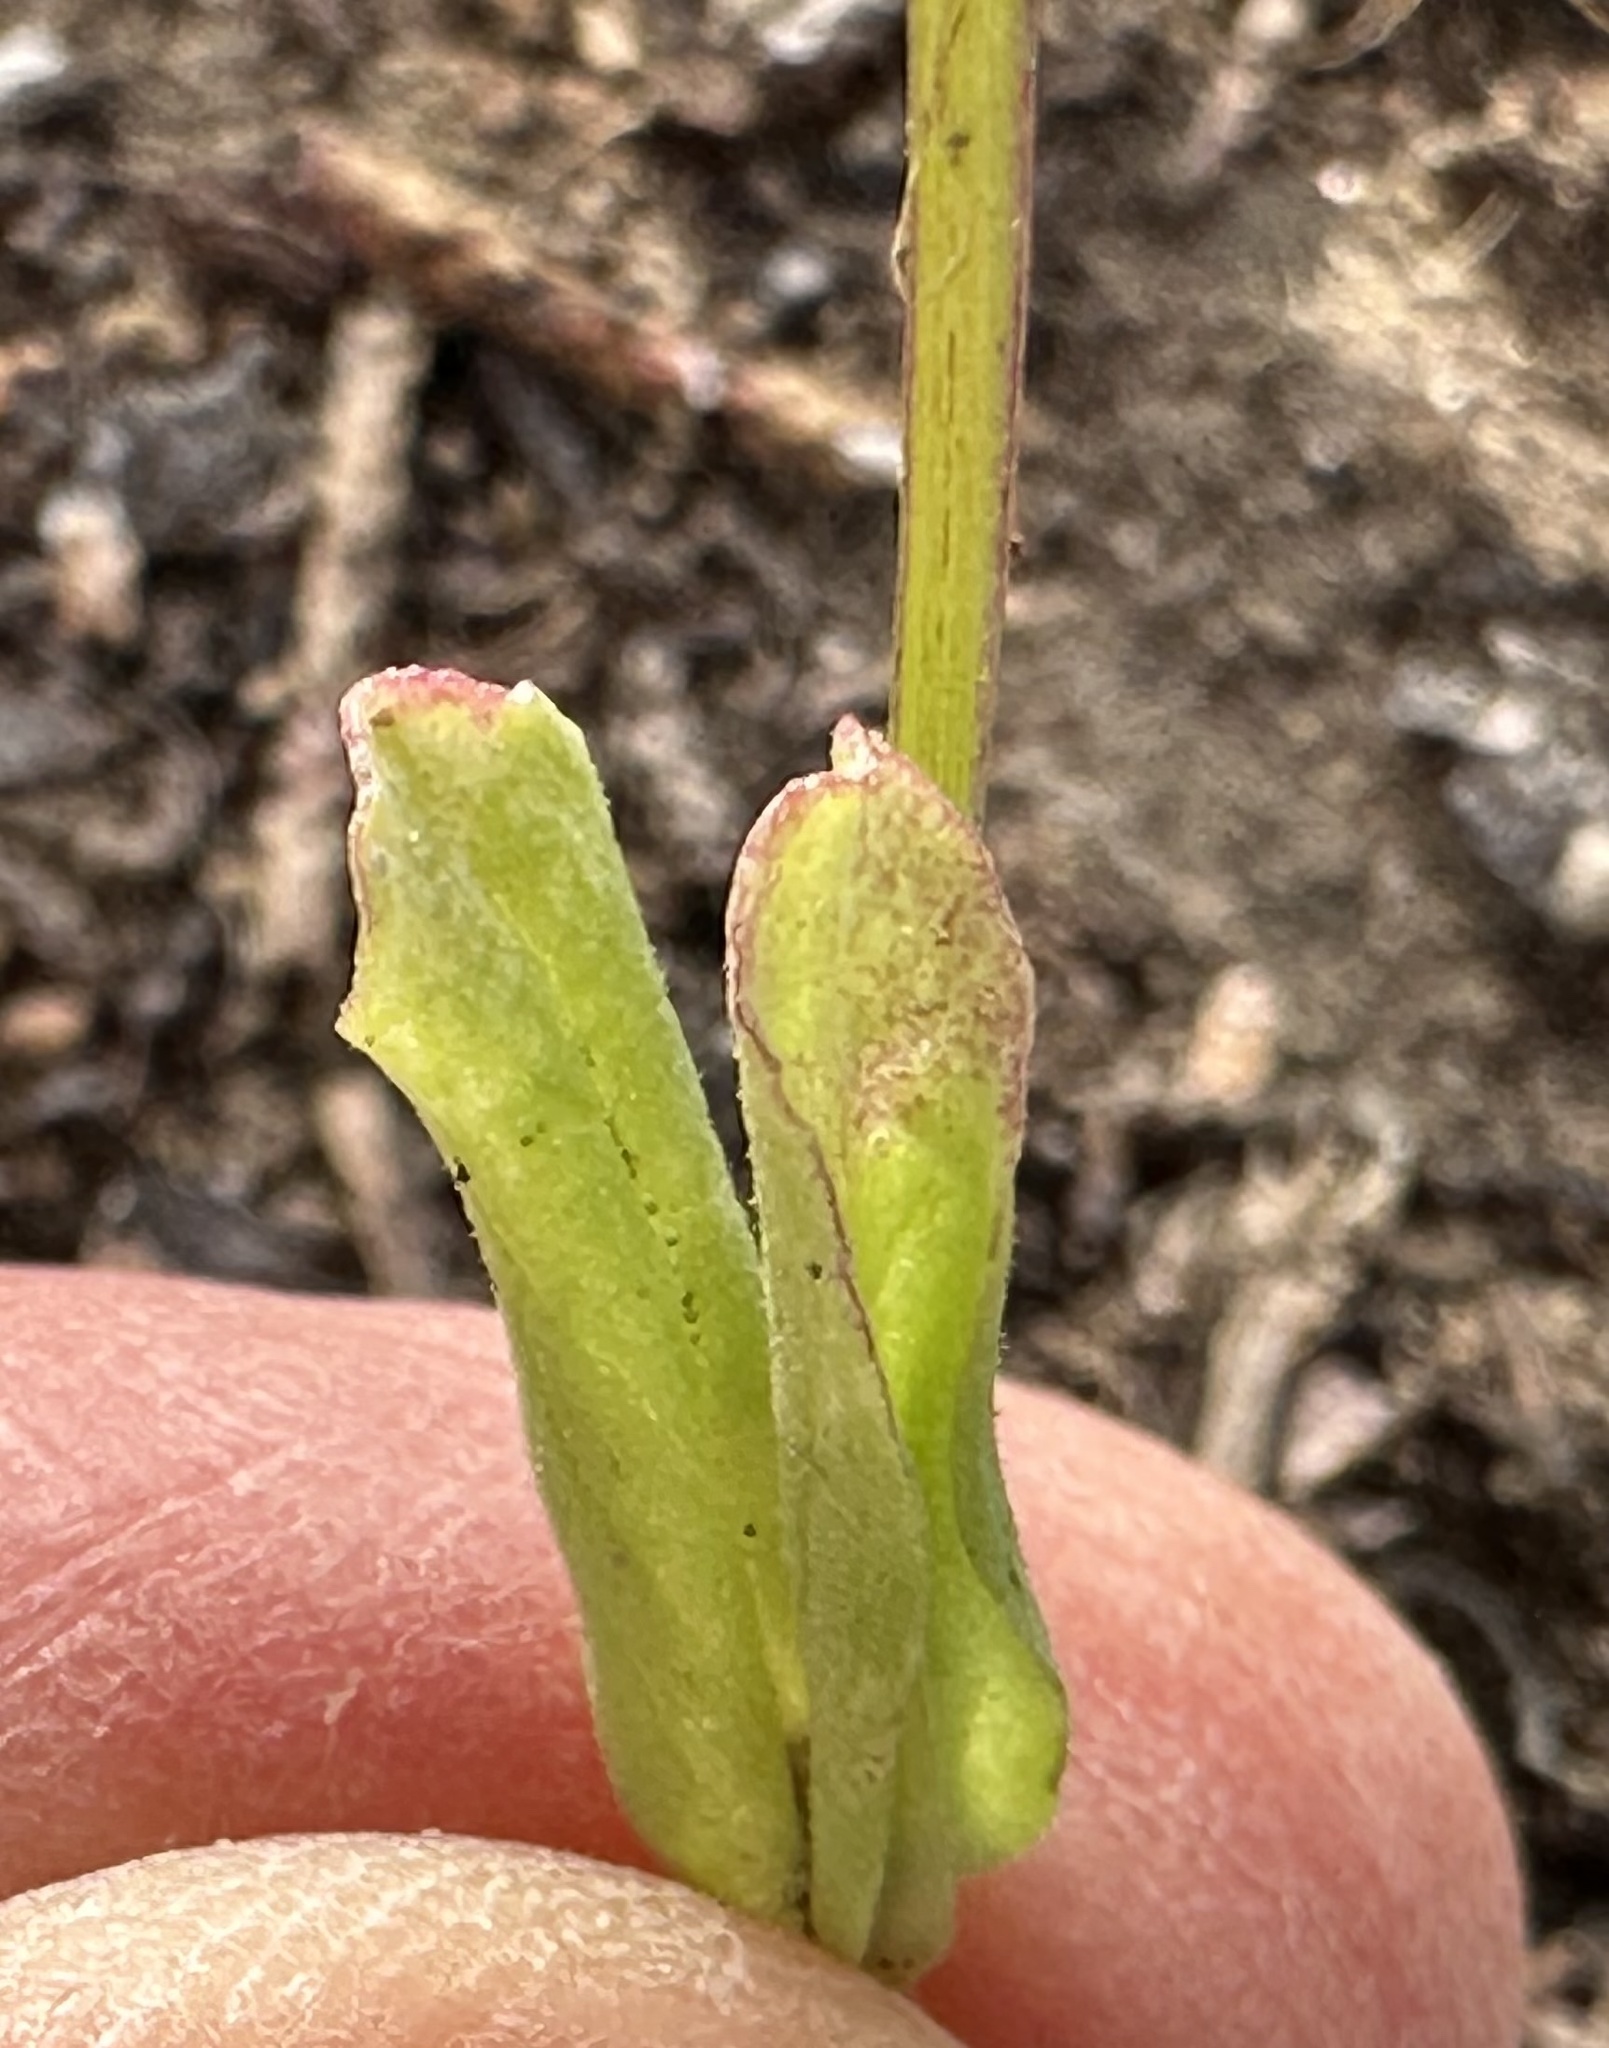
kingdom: Plantae
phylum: Tracheophyta
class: Magnoliopsida
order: Dipsacales
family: Caprifoliaceae
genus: Plectritis
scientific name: Plectritis macroptera
